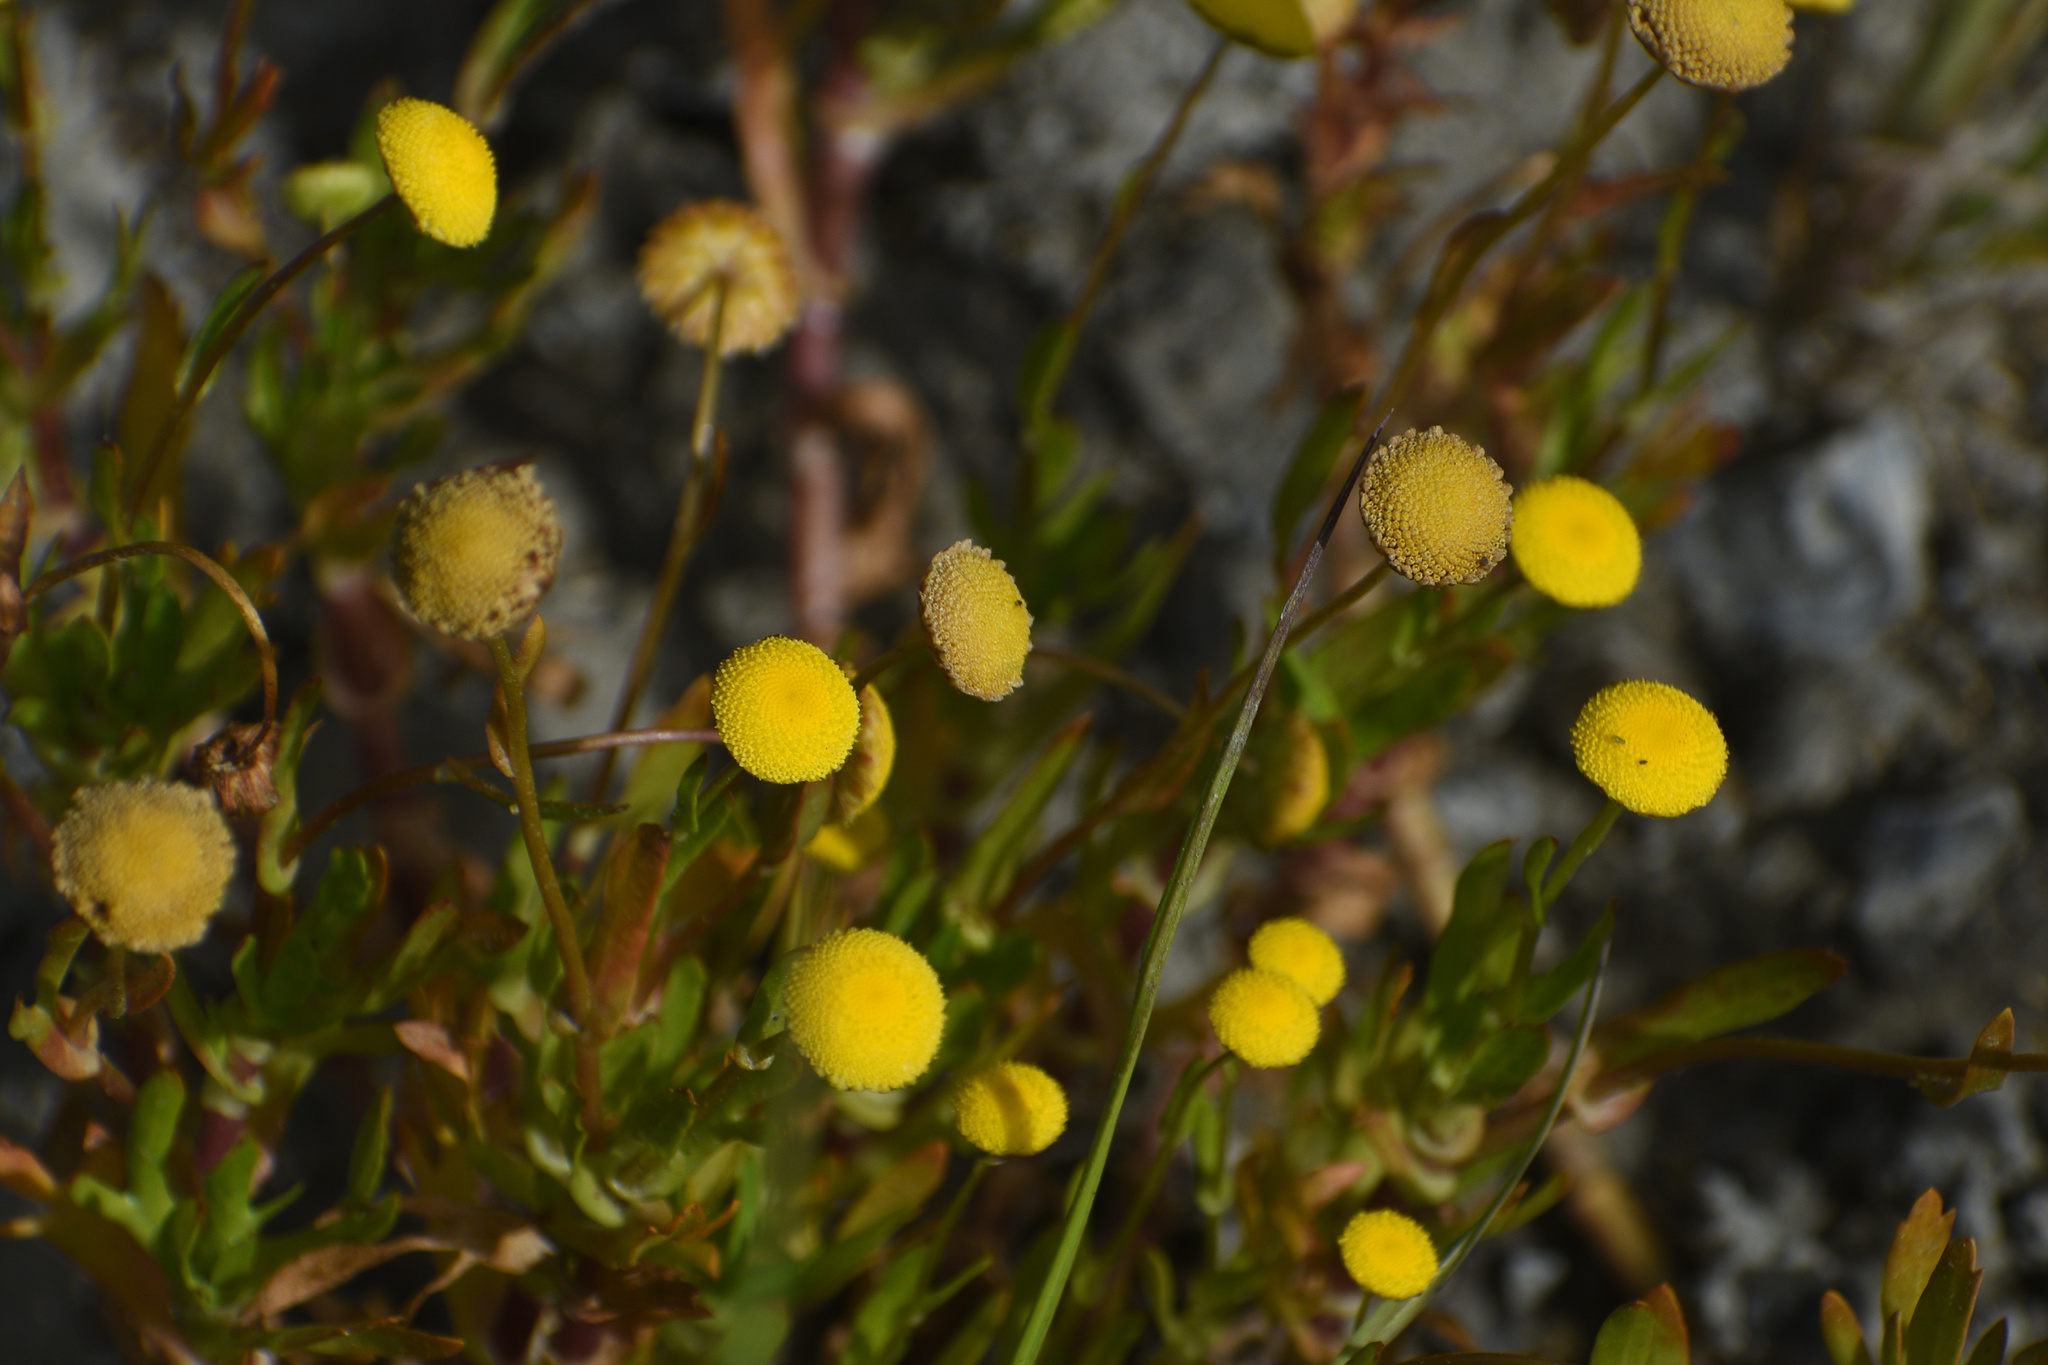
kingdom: Plantae
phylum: Tracheophyta
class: Magnoliopsida
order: Asterales
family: Asteraceae
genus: Cotula
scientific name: Cotula coronopifolia
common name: Buttonweed
